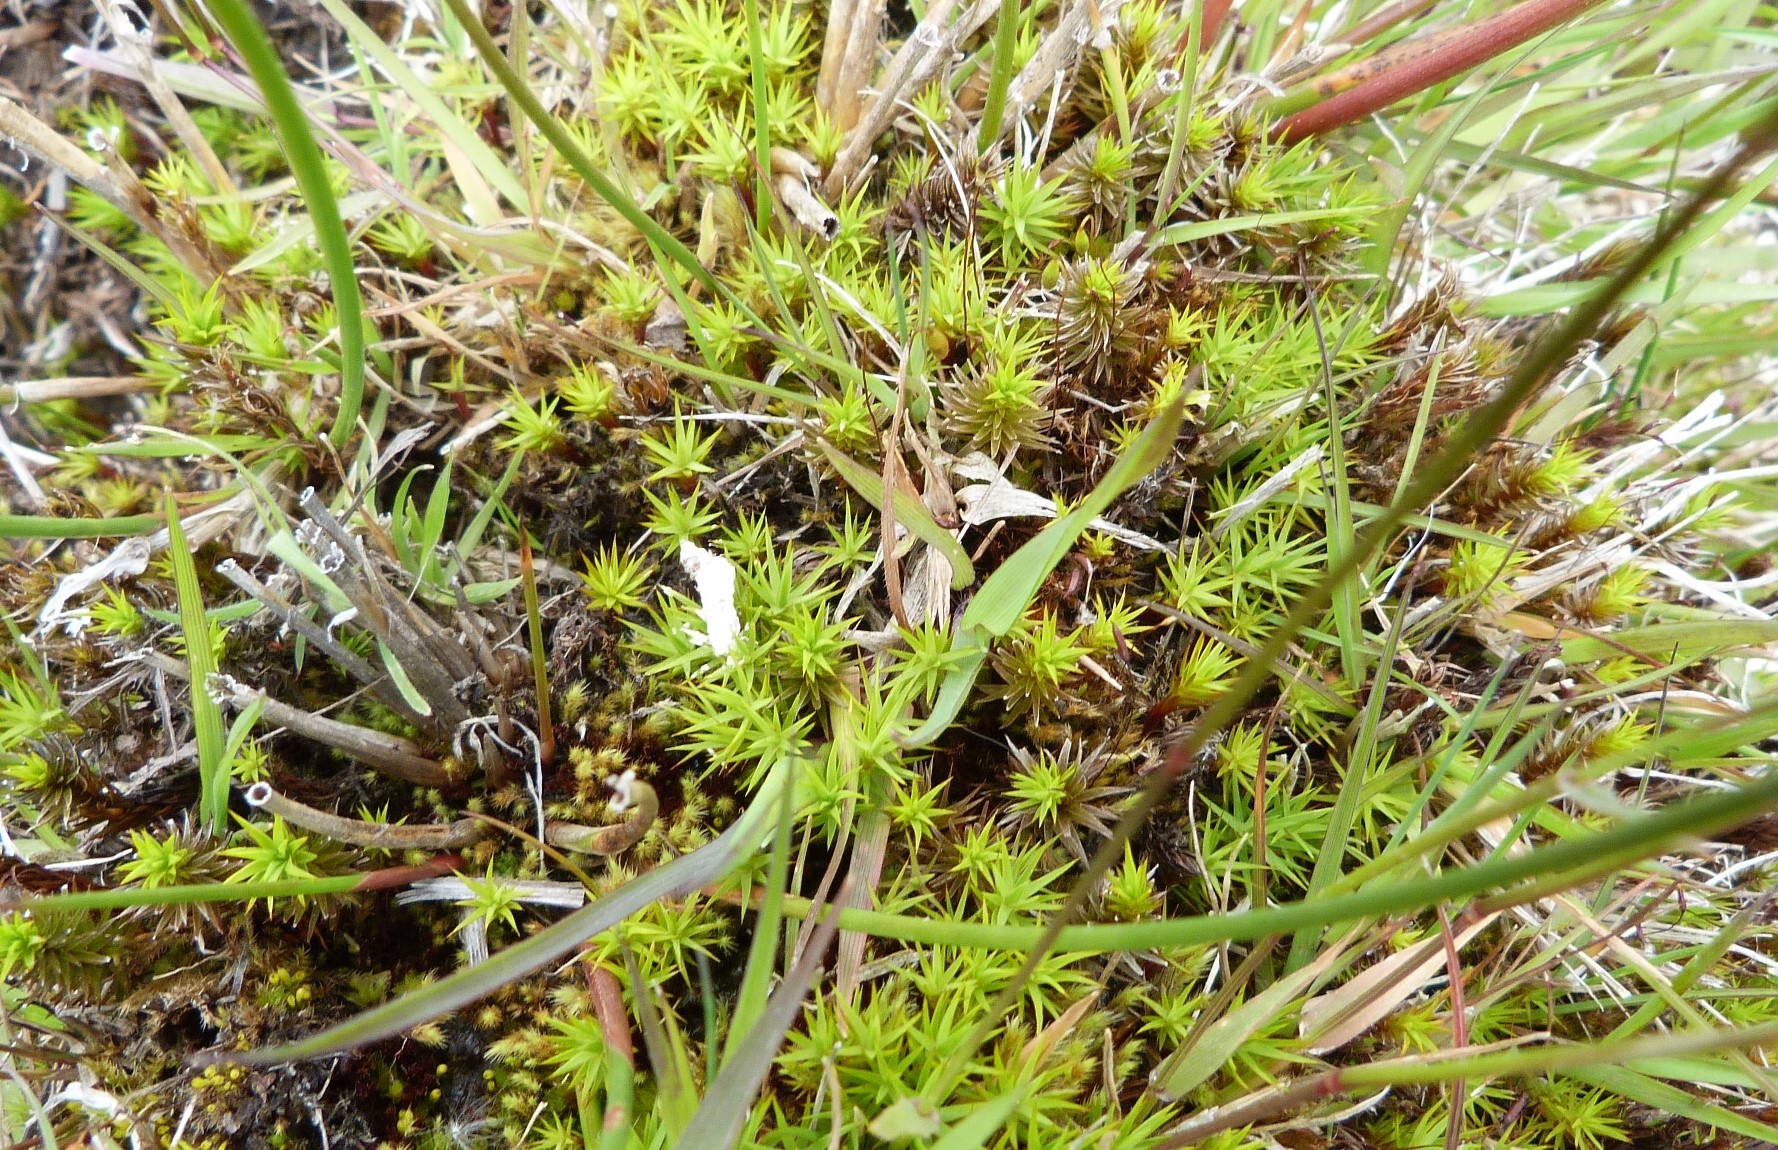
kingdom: Plantae
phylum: Bryophyta
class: Polytrichopsida
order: Polytrichales
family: Polytrichaceae
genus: Polytrichum
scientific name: Polytrichum juniperinum
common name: Juniper haircap moss
